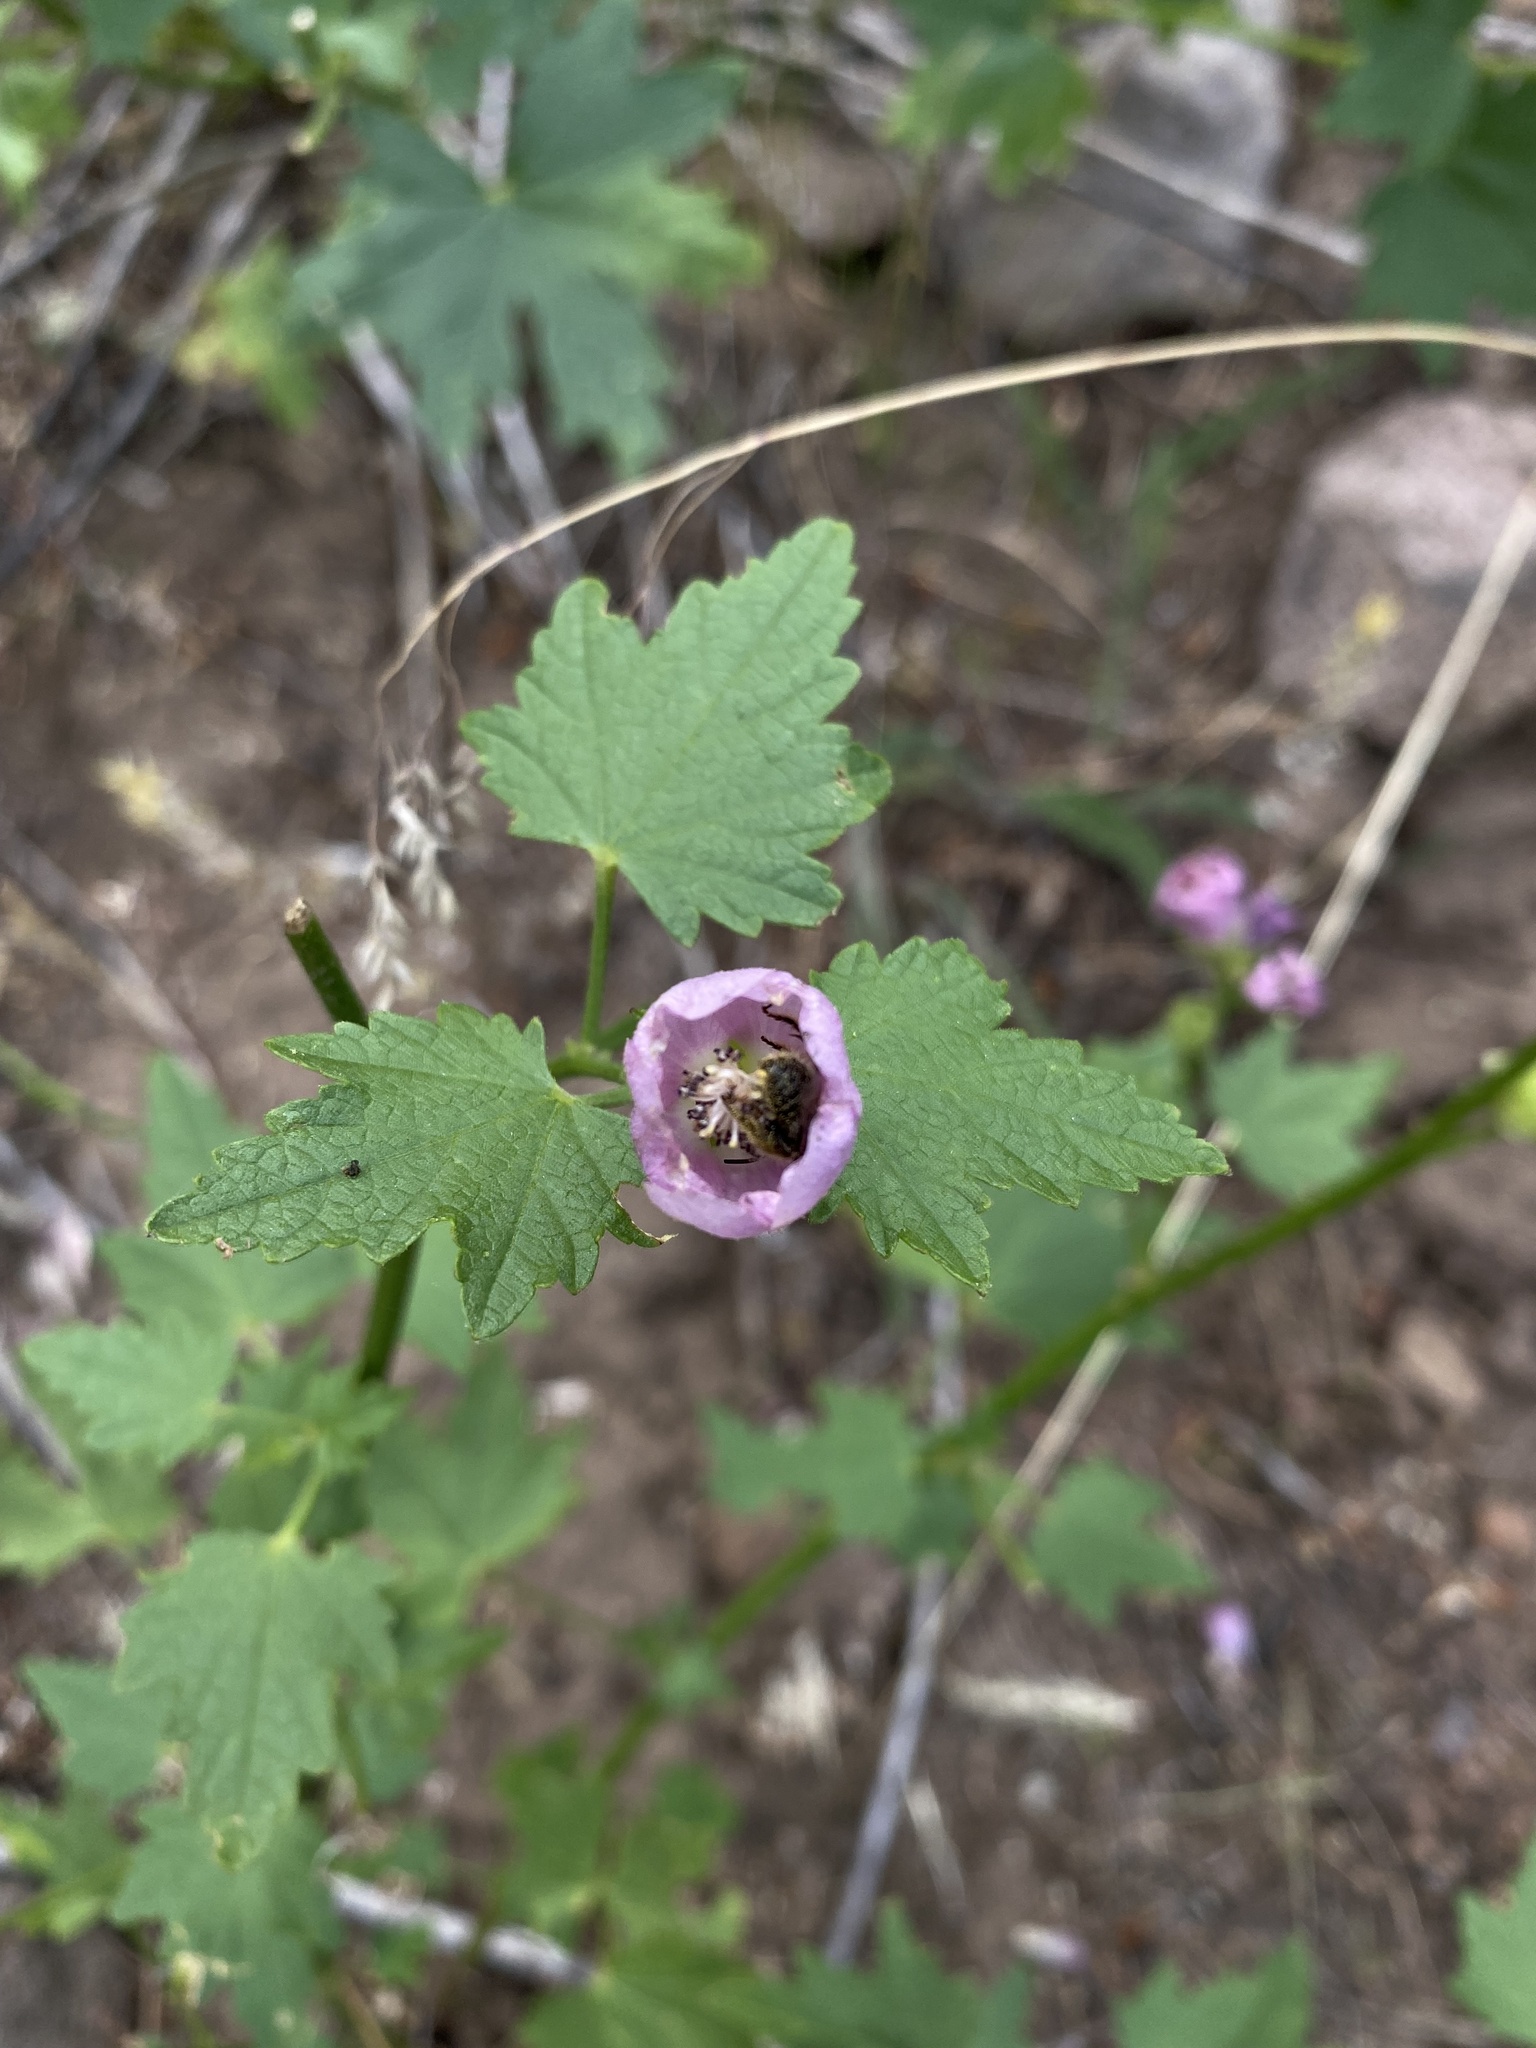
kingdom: Plantae
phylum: Tracheophyta
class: Magnoliopsida
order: Malvales
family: Malvaceae
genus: Iliamna
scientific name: Iliamna rivularis
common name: Wild hollyhock
